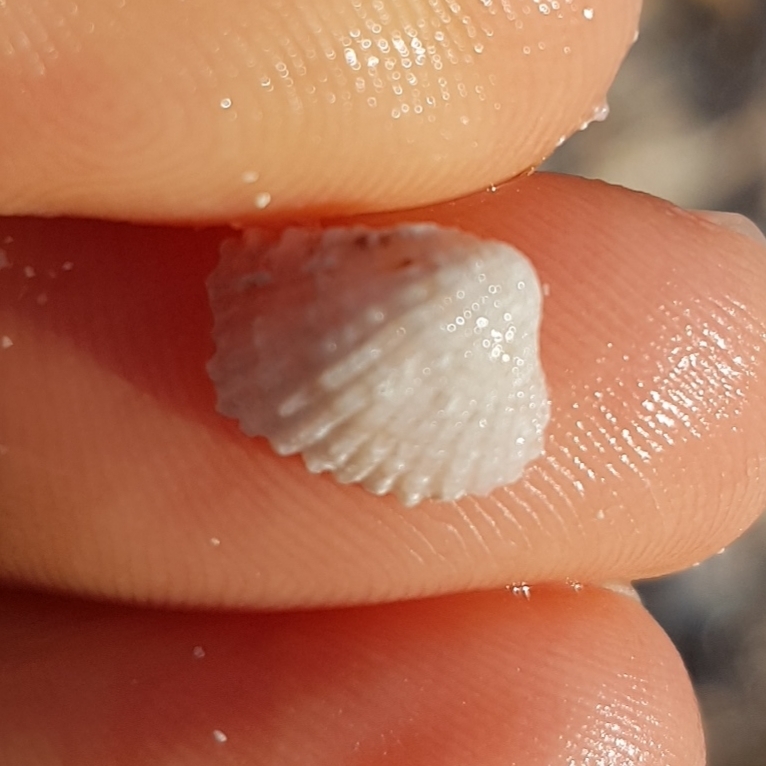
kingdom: Animalia
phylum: Mollusca
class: Bivalvia
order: Carditida
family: Carditidae
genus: Glans
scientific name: Glans trapezia
